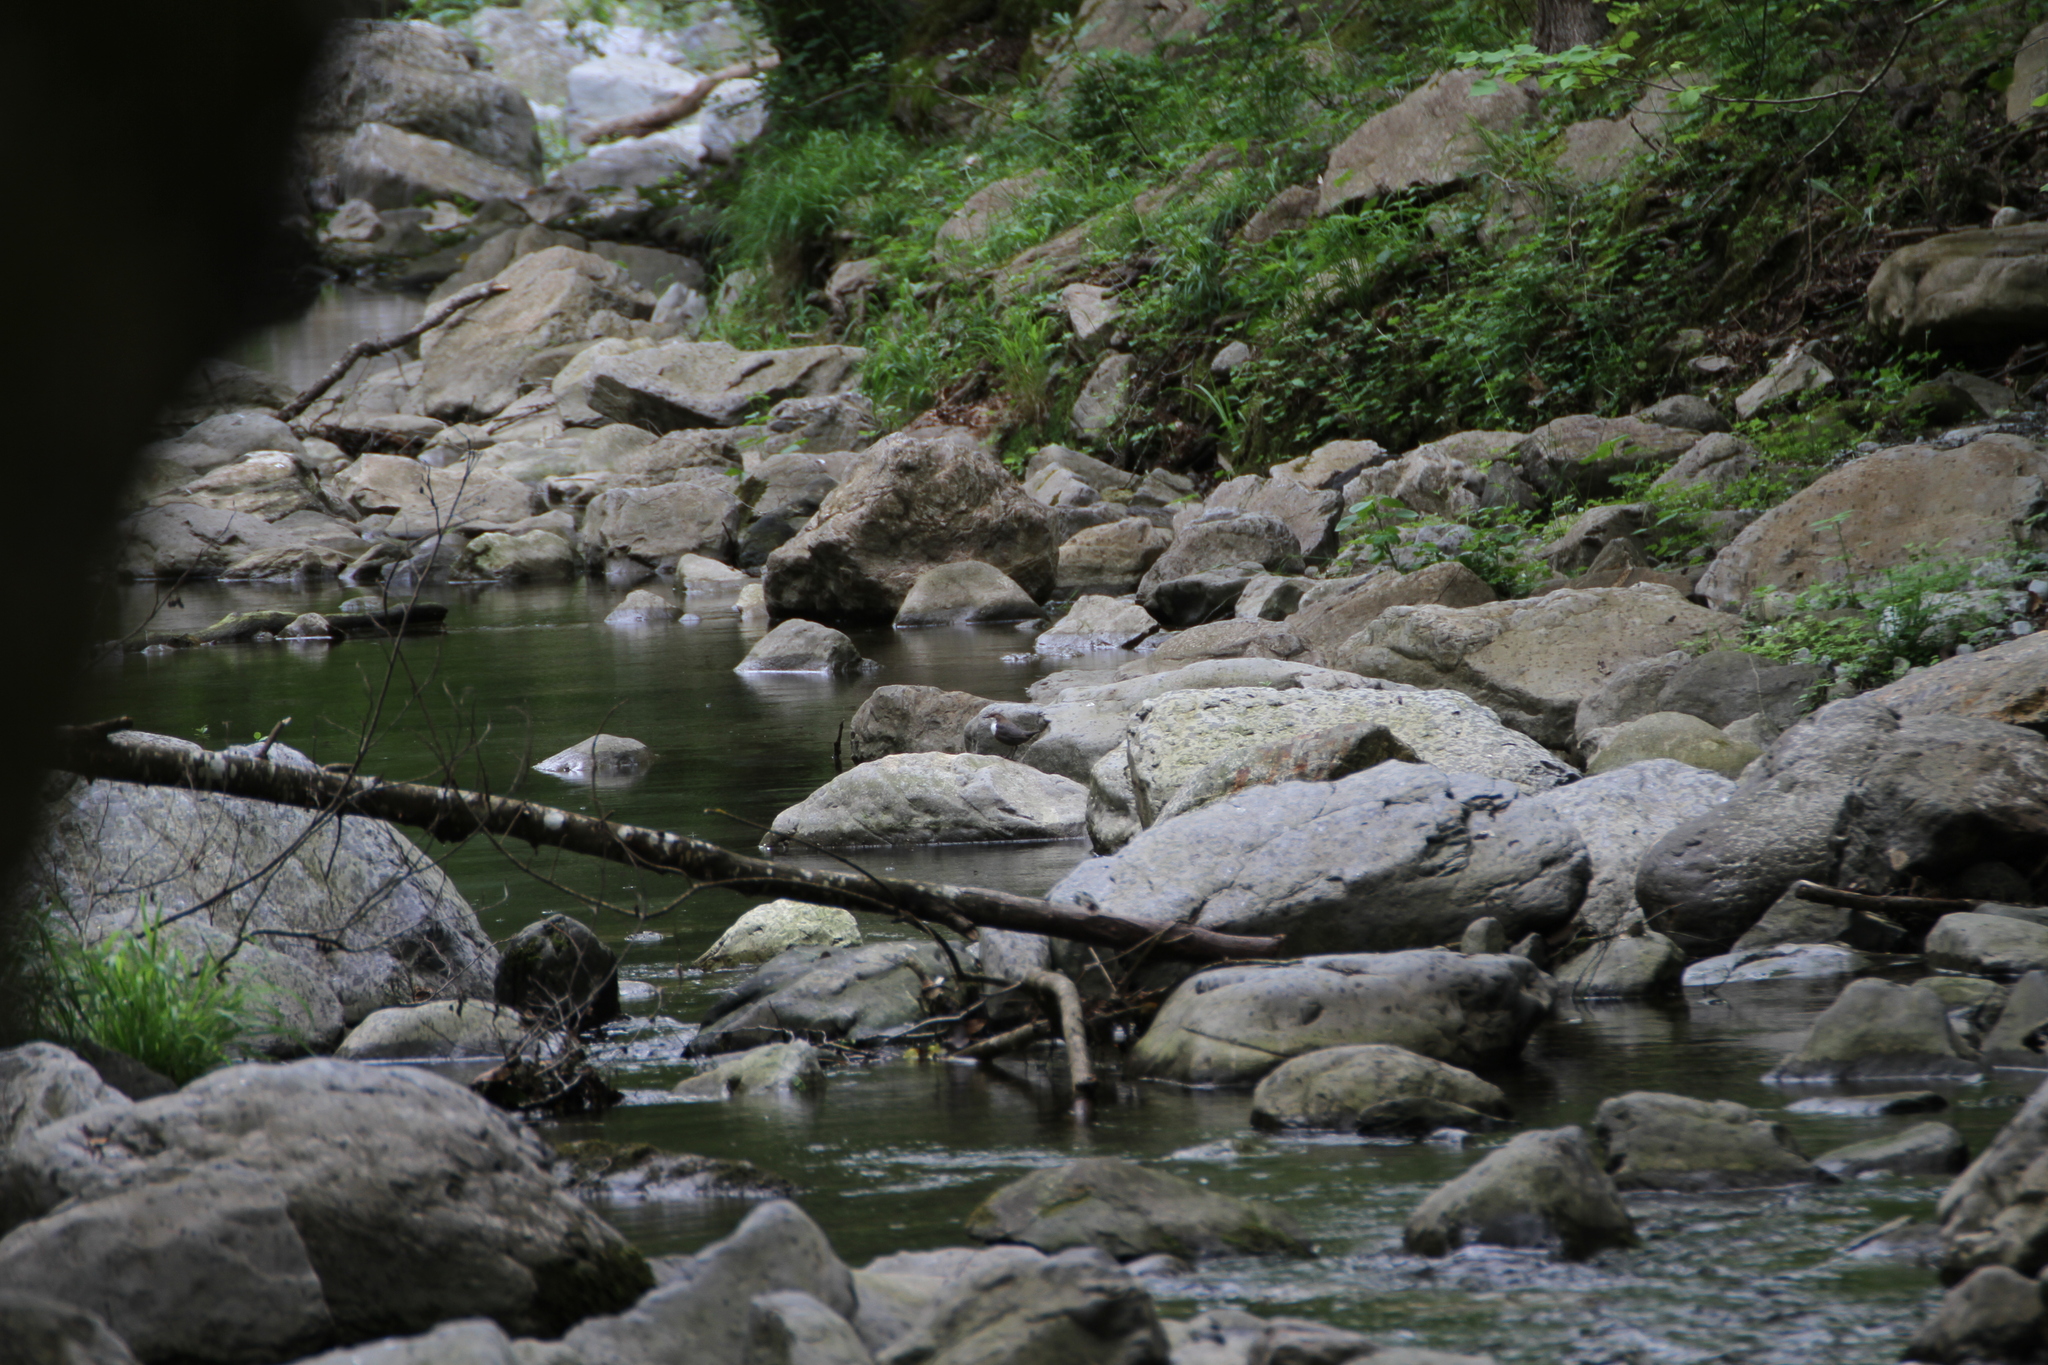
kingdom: Animalia
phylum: Chordata
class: Aves
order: Passeriformes
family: Cinclidae
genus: Cinclus
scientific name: Cinclus cinclus
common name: White-throated dipper
